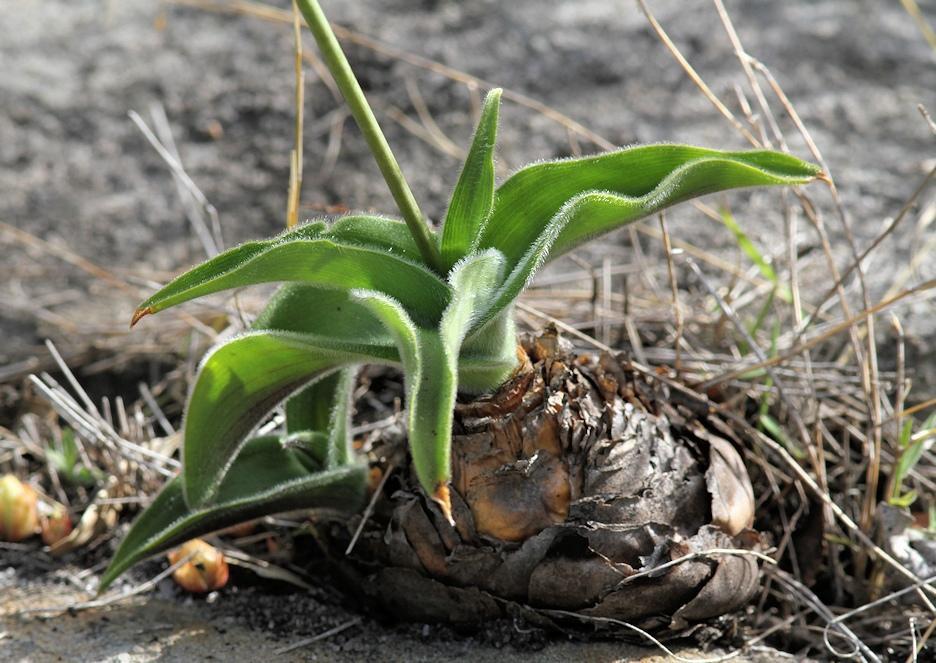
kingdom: Plantae
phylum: Tracheophyta
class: Liliopsida
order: Asparagales
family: Asparagaceae
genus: Merwilla
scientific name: Merwilla plumbea
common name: Blue-squill
